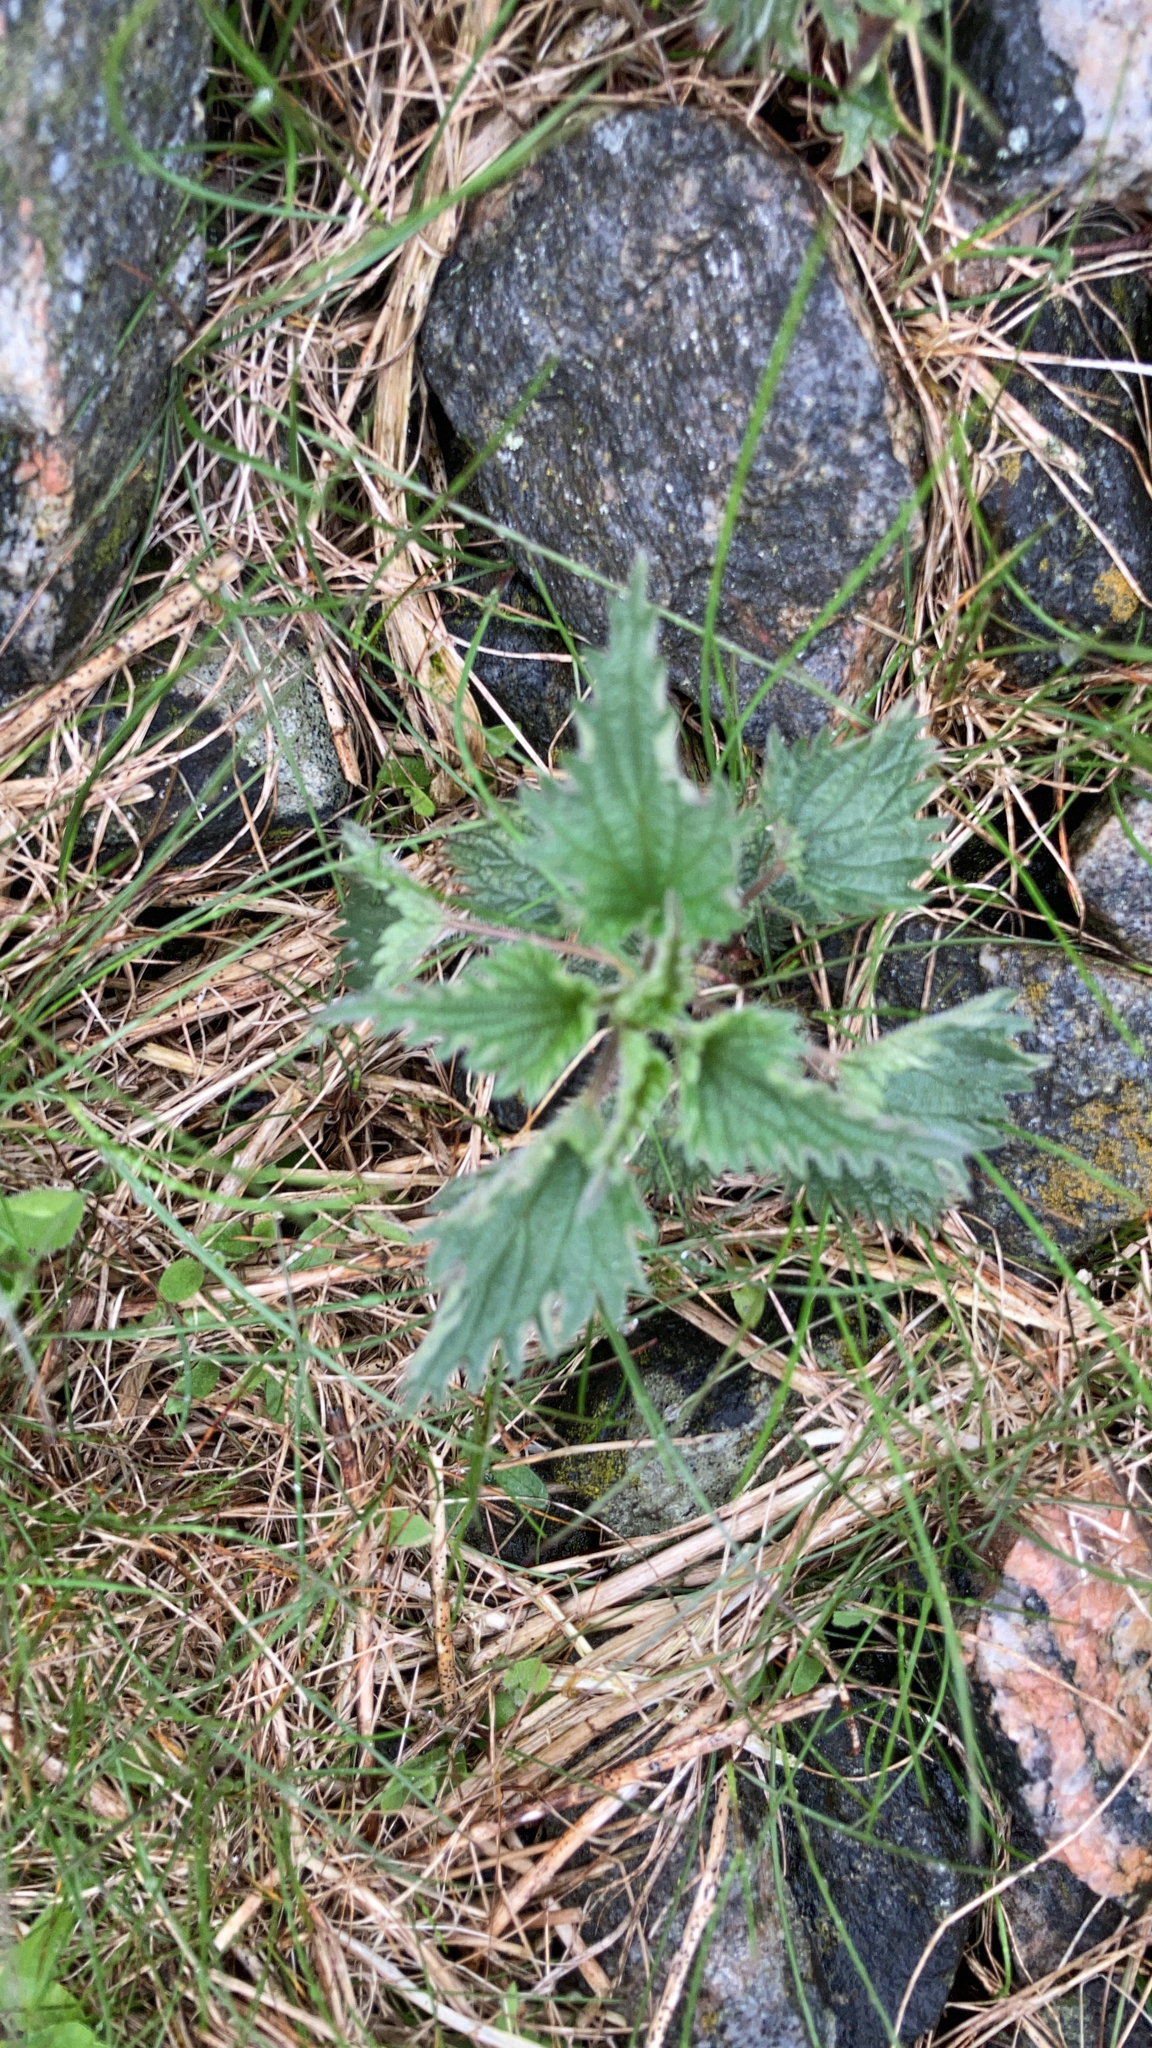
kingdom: Plantae
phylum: Tracheophyta
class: Magnoliopsida
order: Rosales
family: Urticaceae
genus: Urtica
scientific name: Urtica dioica
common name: Common nettle
